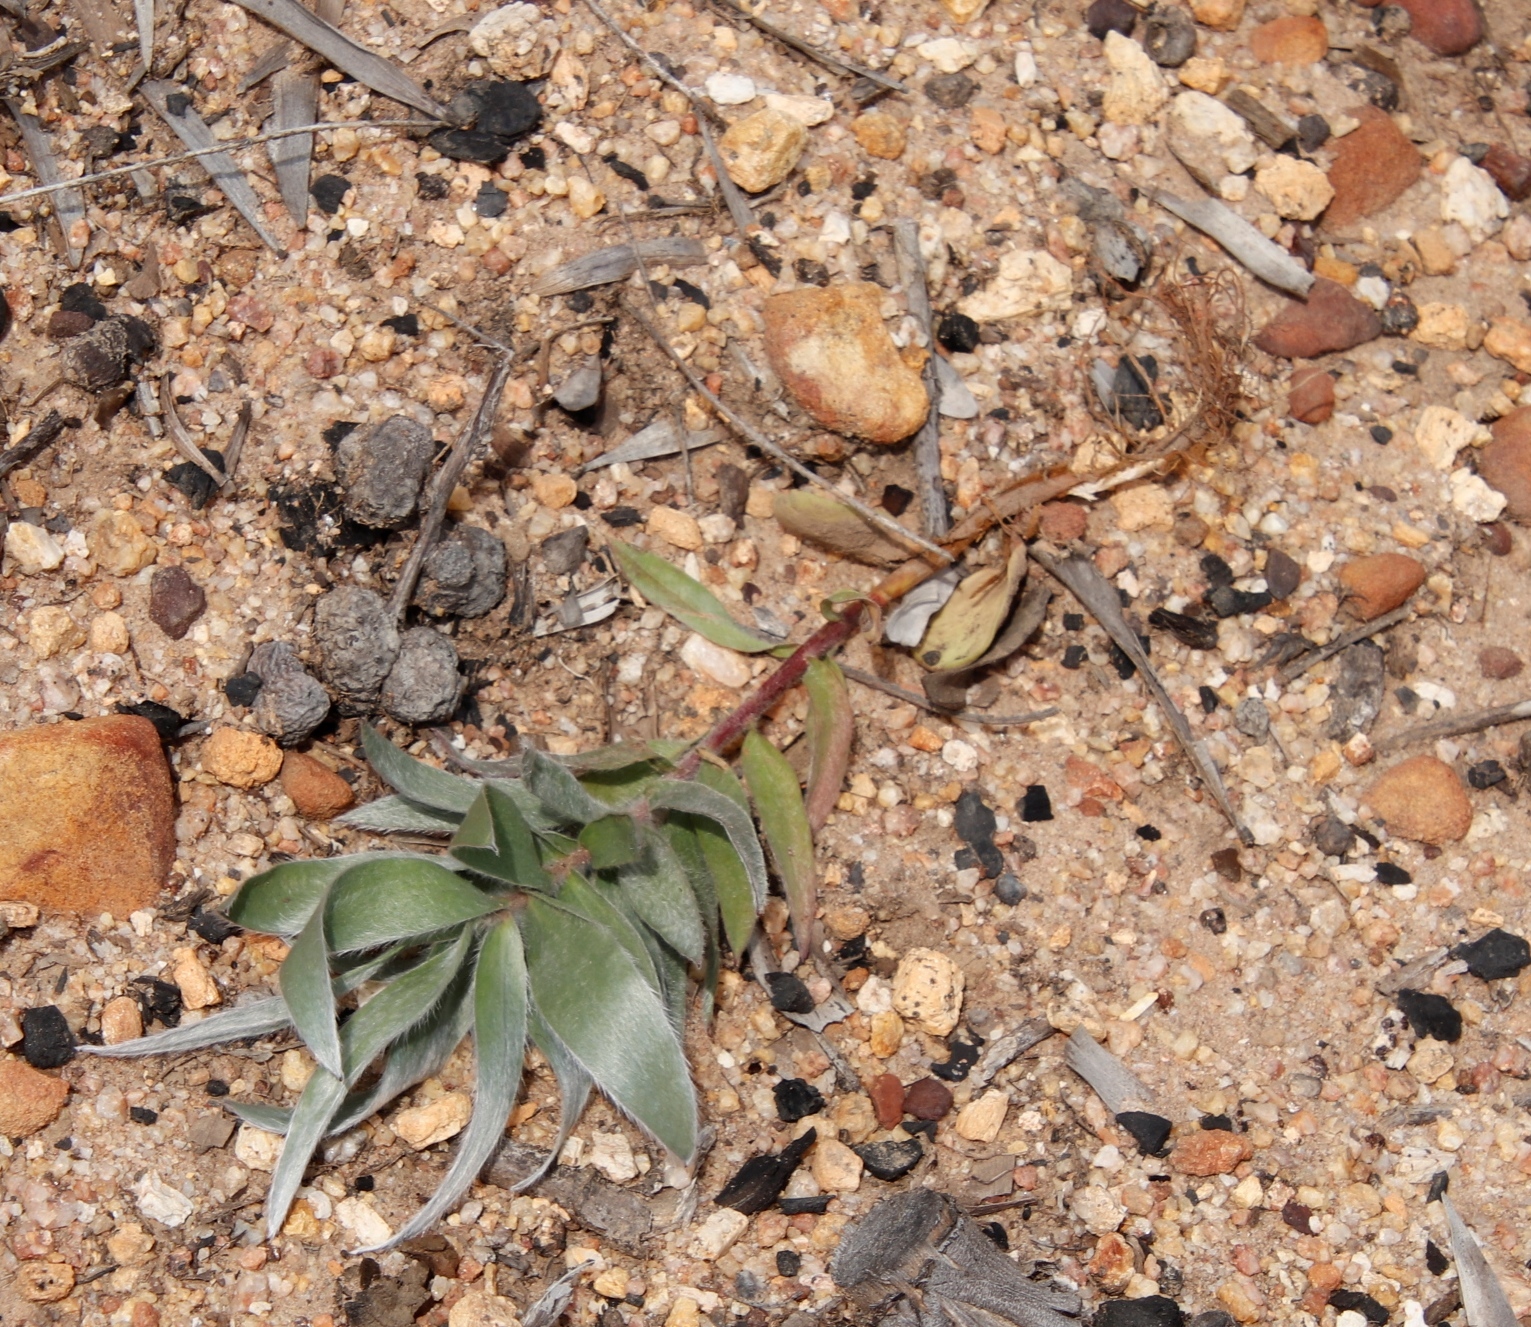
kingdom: Plantae
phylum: Tracheophyta
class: Magnoliopsida
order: Proteales
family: Proteaceae
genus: Leucadendron
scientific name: Leucadendron argenteum
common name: Cape silver tree
